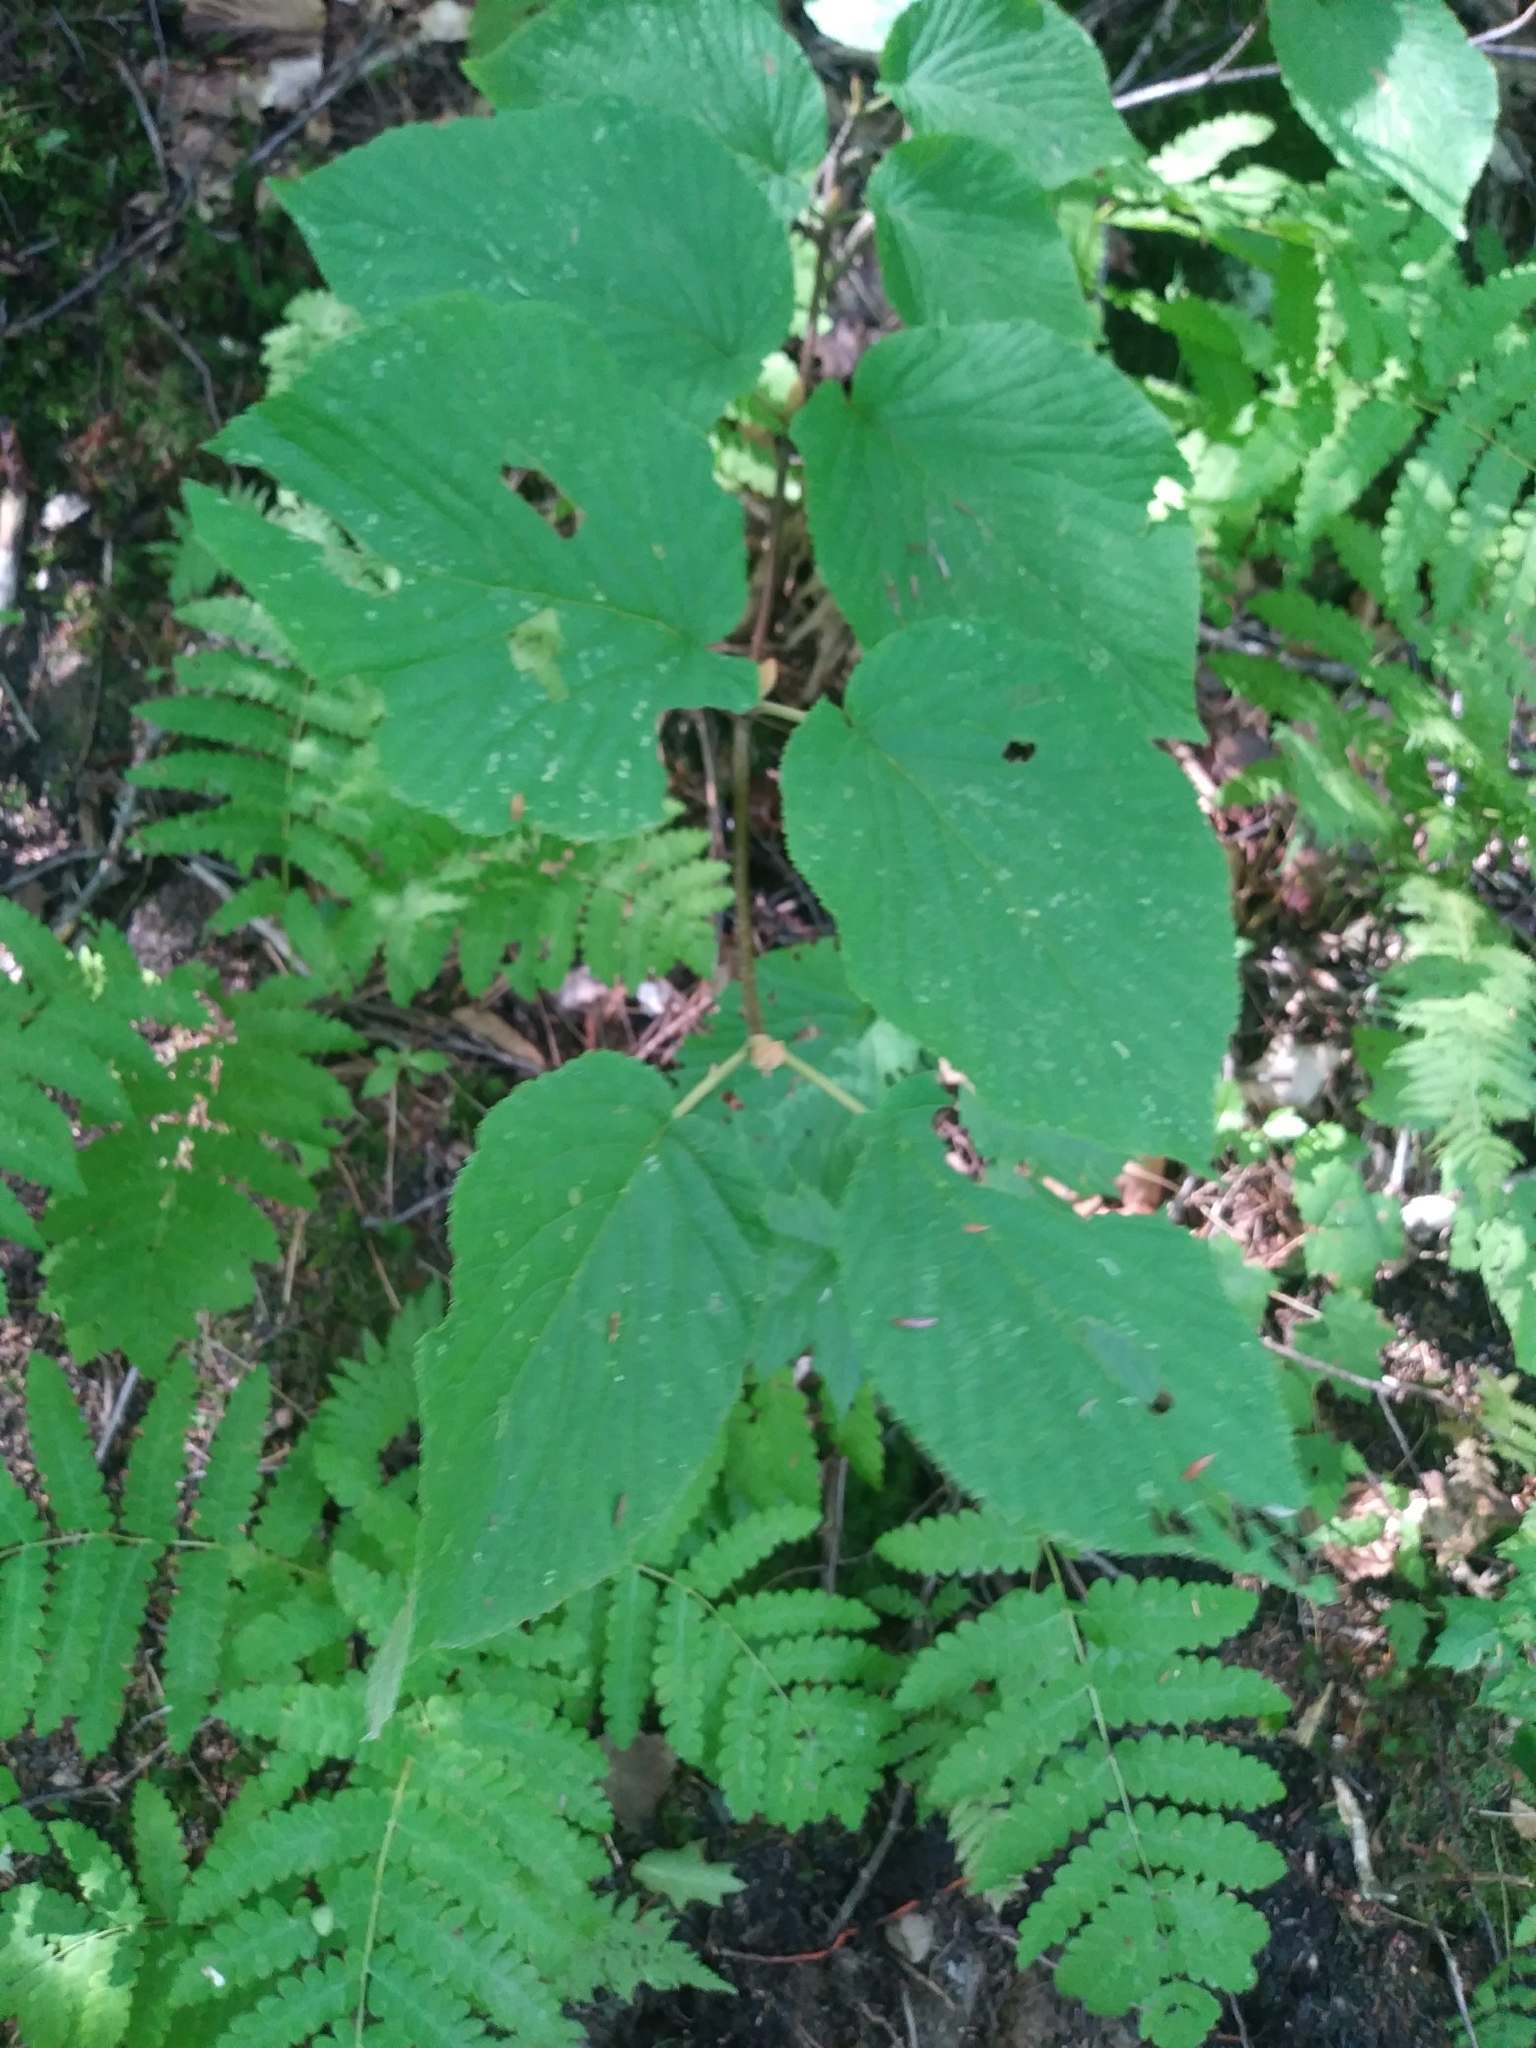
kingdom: Plantae
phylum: Tracheophyta
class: Magnoliopsida
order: Dipsacales
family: Viburnaceae
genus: Viburnum
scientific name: Viburnum lantanoides
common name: Hobblebush
